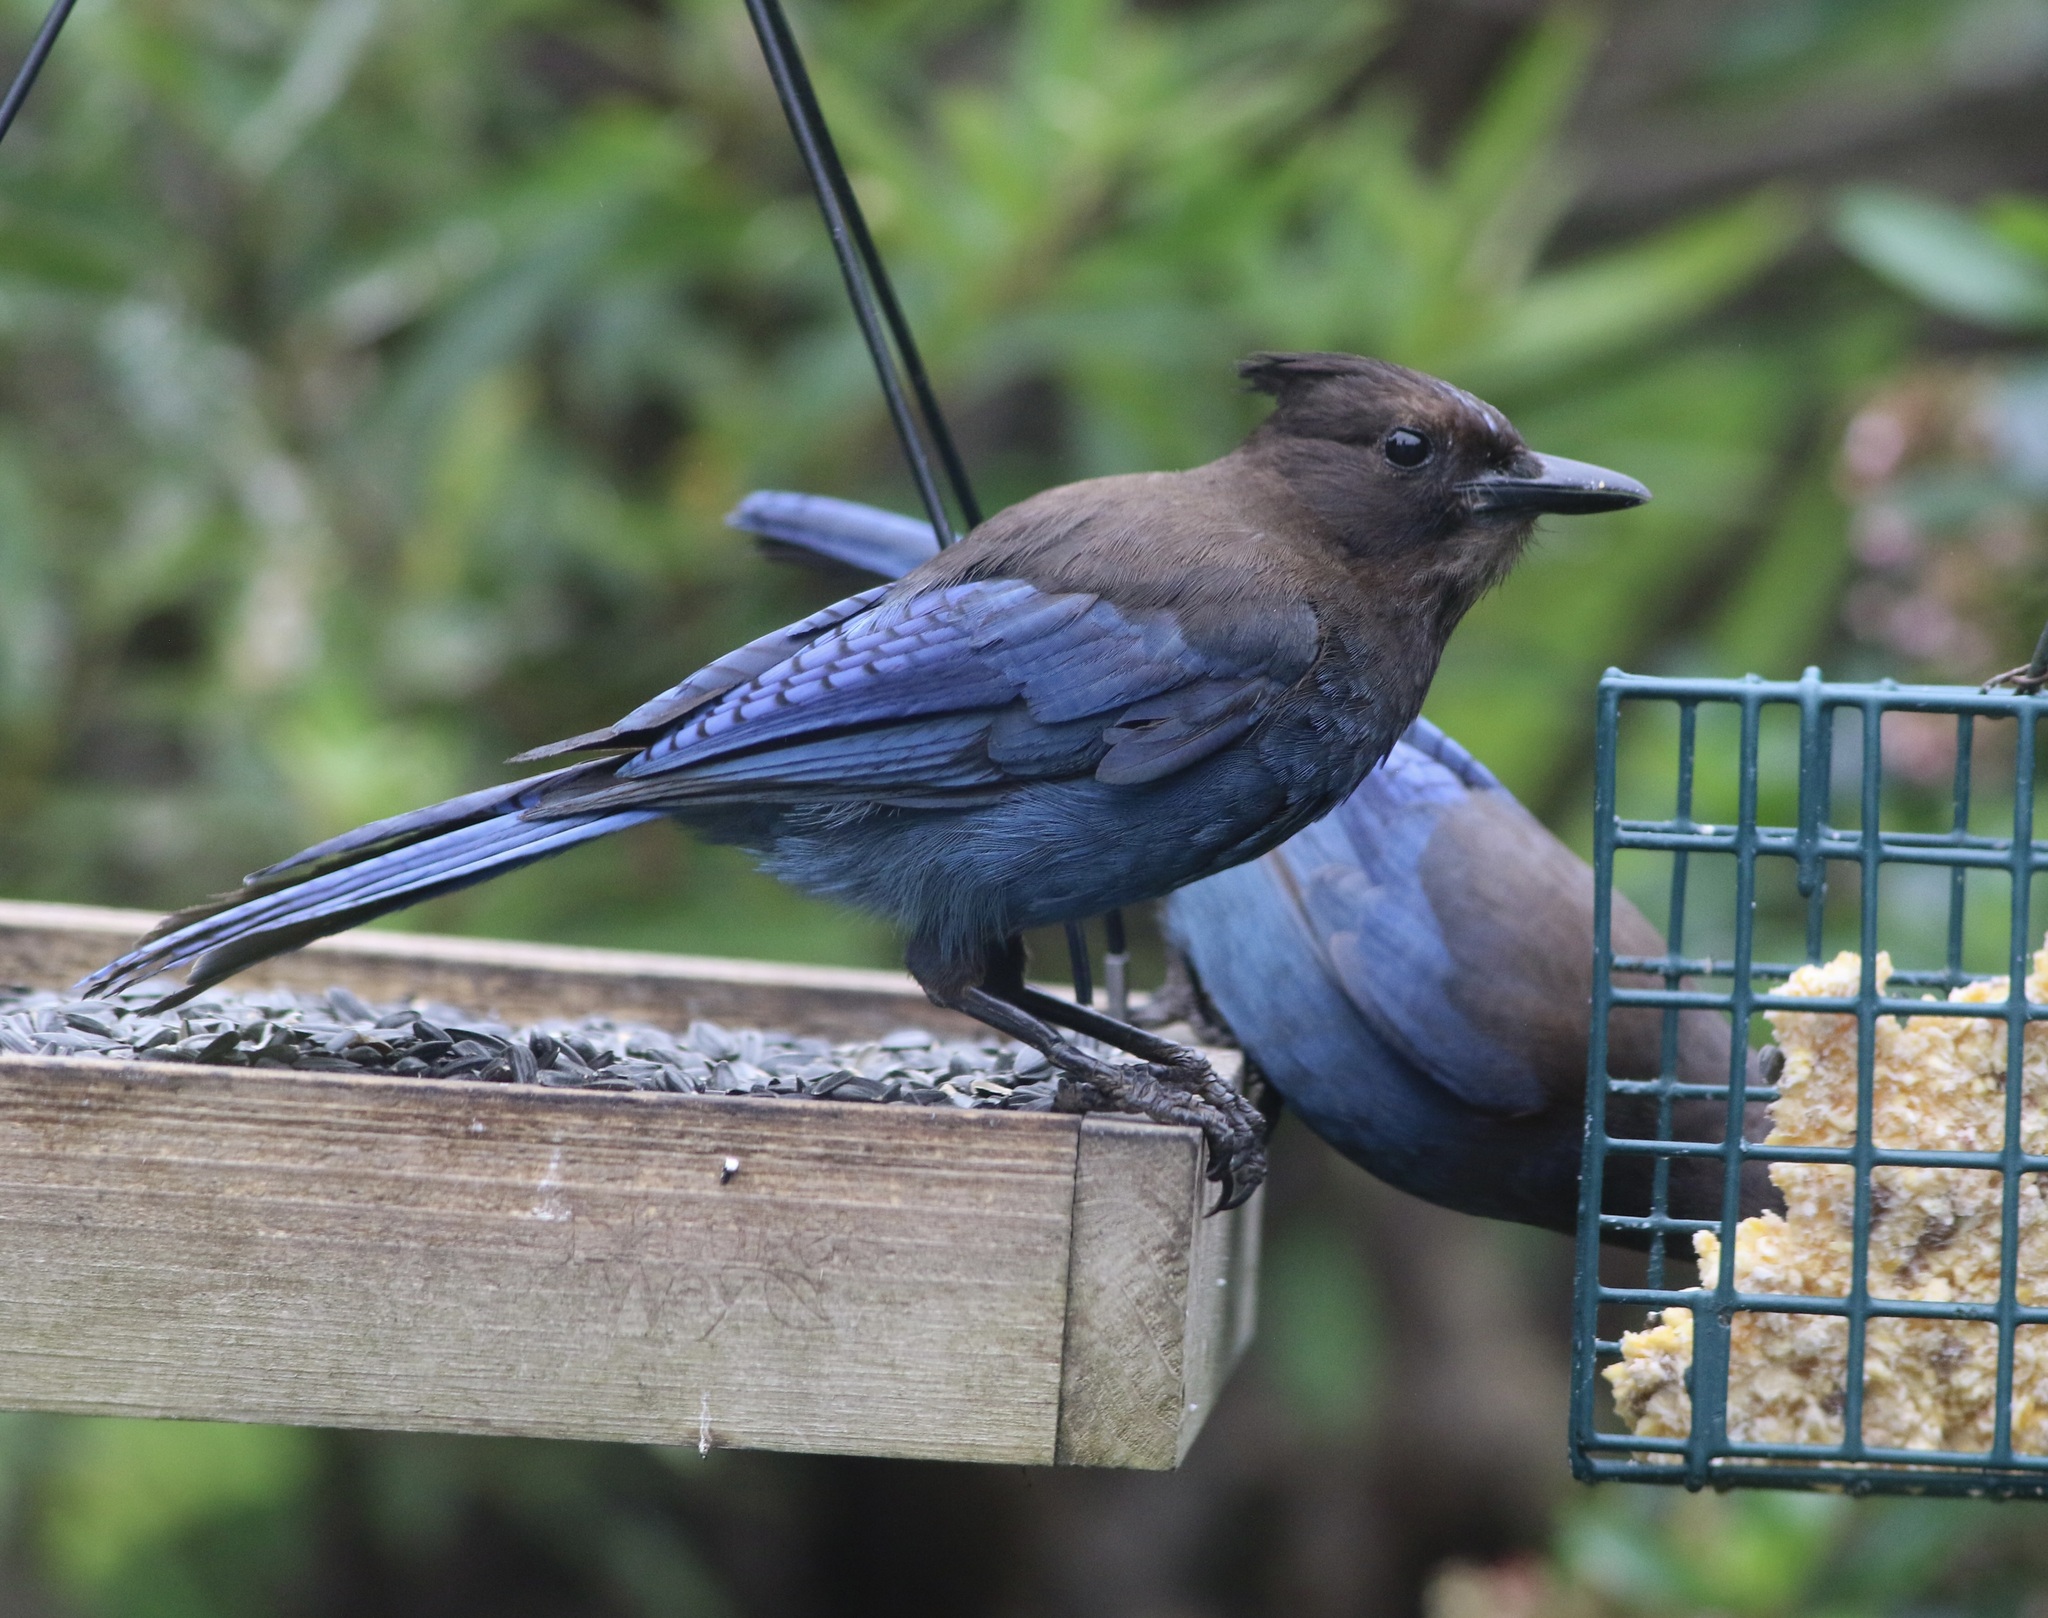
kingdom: Animalia
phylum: Chordata
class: Aves
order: Passeriformes
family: Corvidae
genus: Cyanocitta
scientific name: Cyanocitta stelleri
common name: Steller's jay
